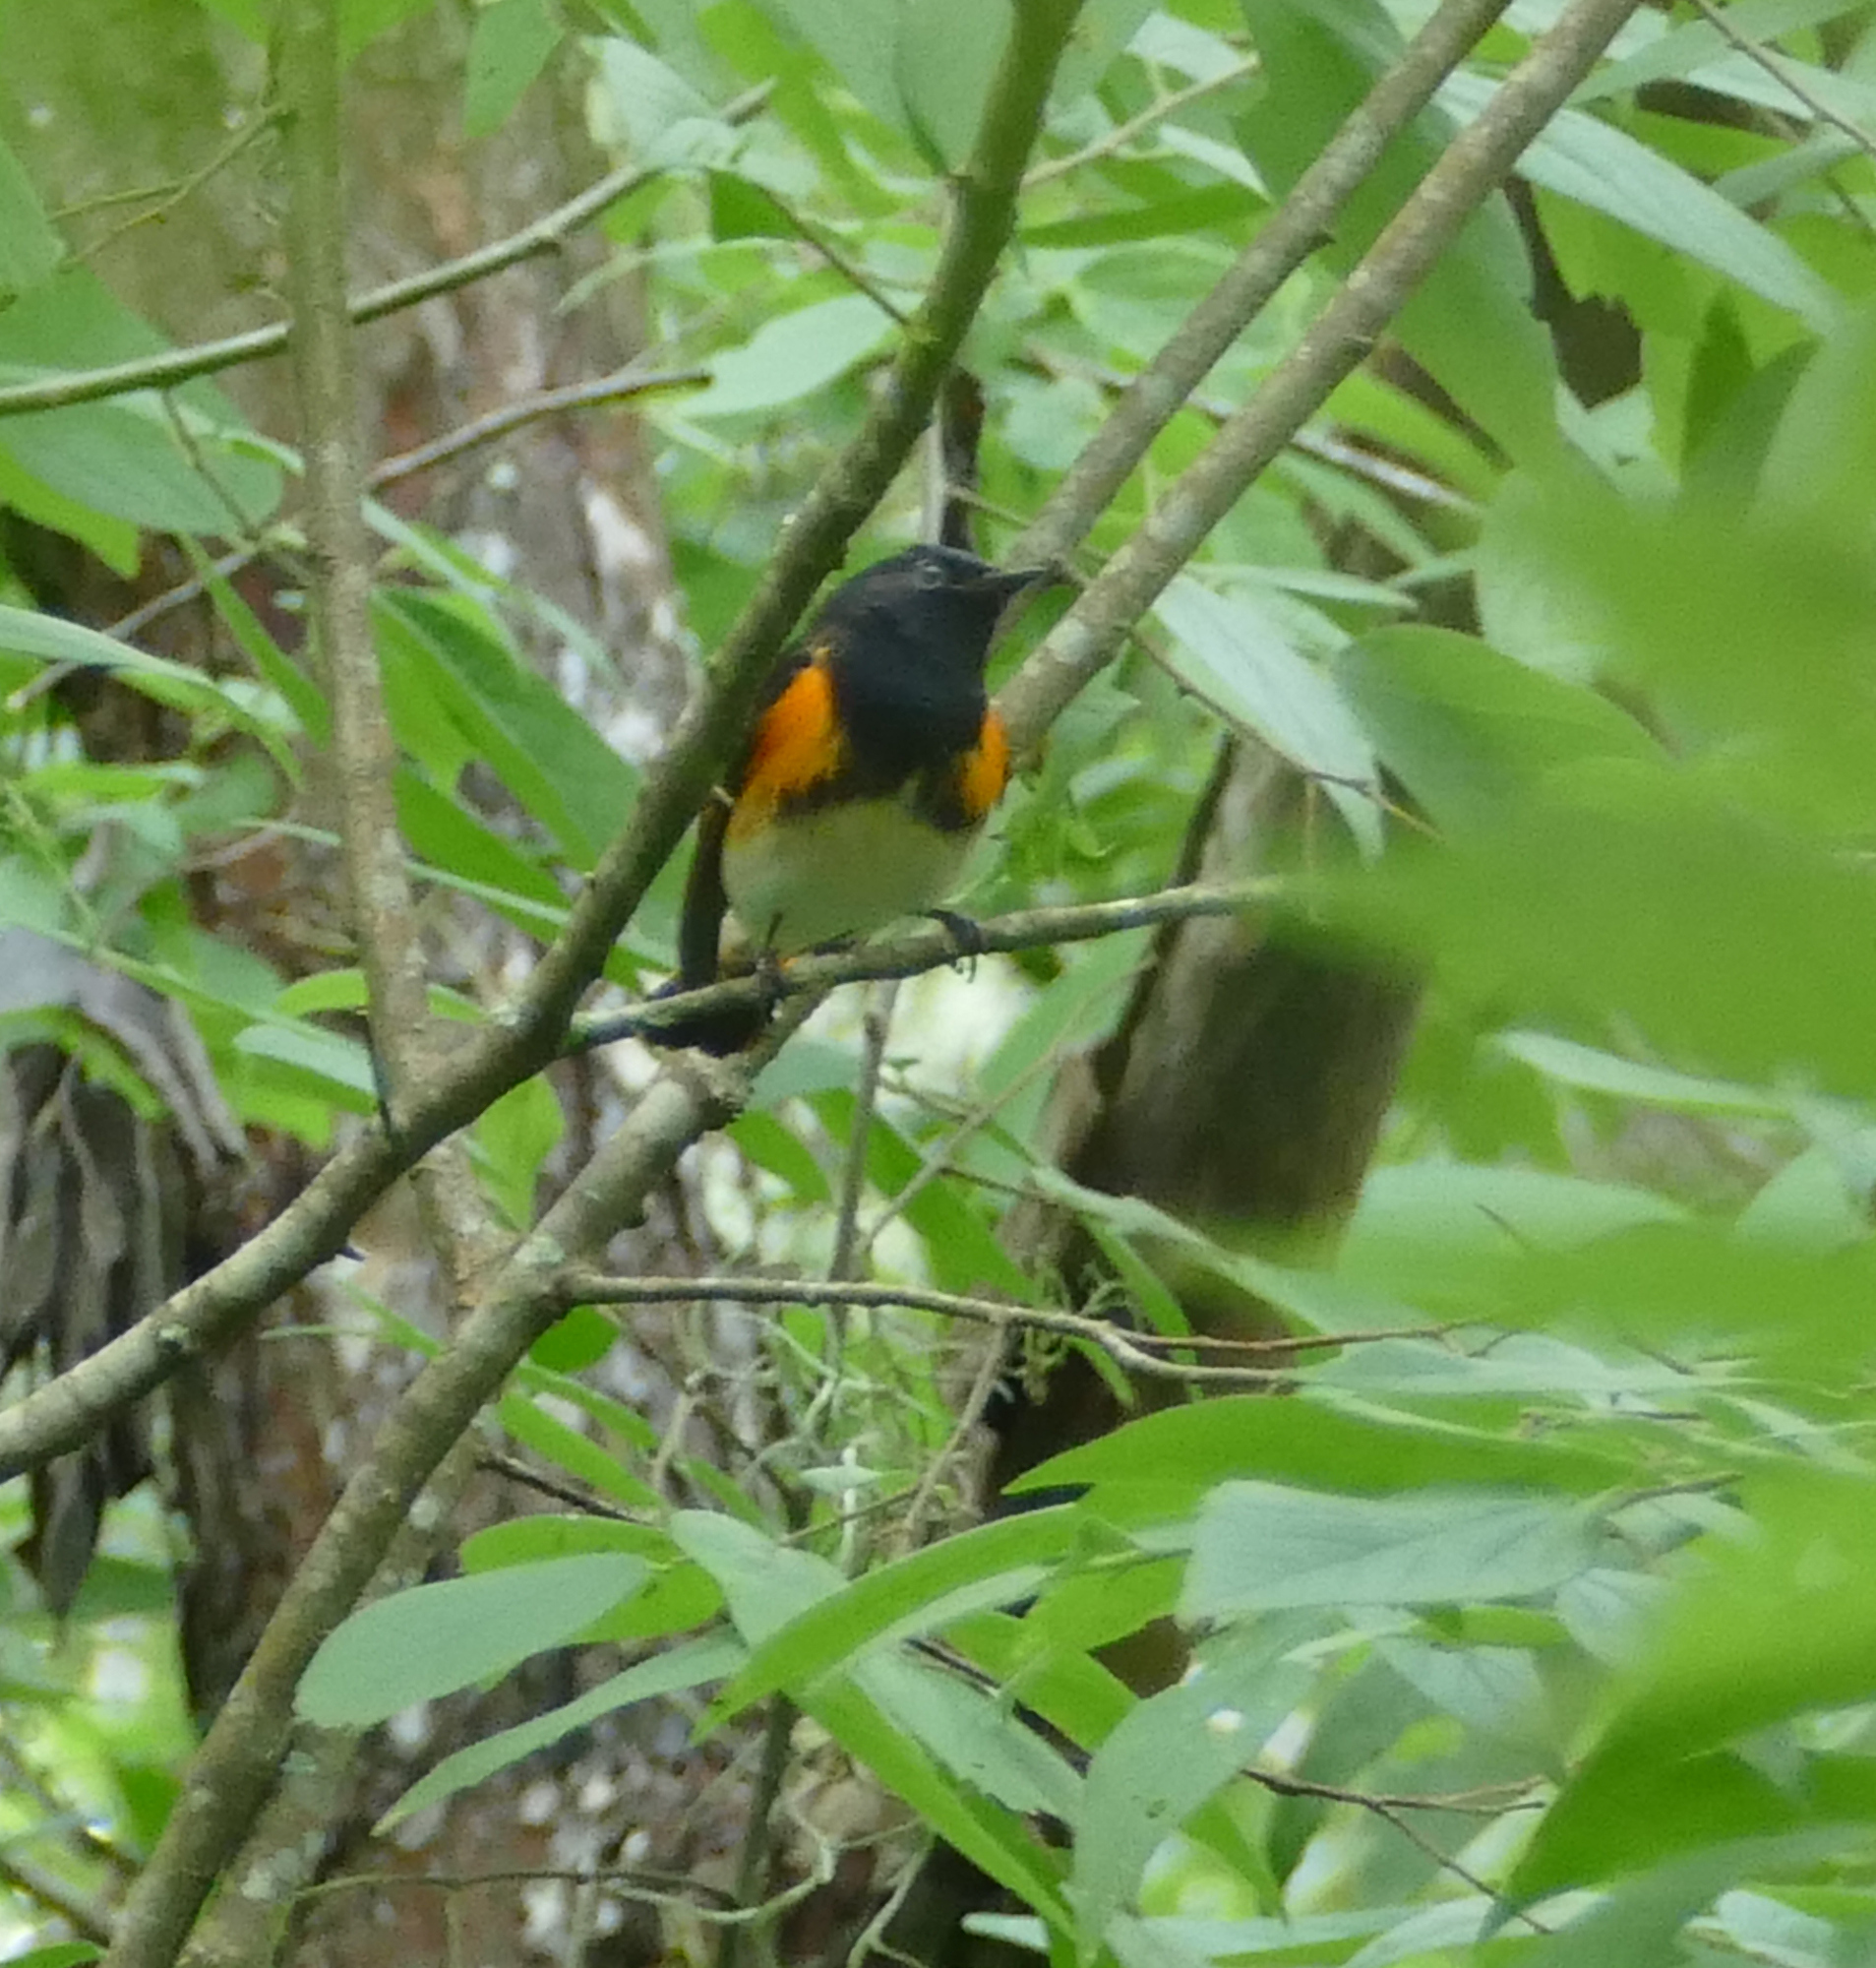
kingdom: Animalia
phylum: Chordata
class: Aves
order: Passeriformes
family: Parulidae
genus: Setophaga
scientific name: Setophaga ruticilla
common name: American redstart
